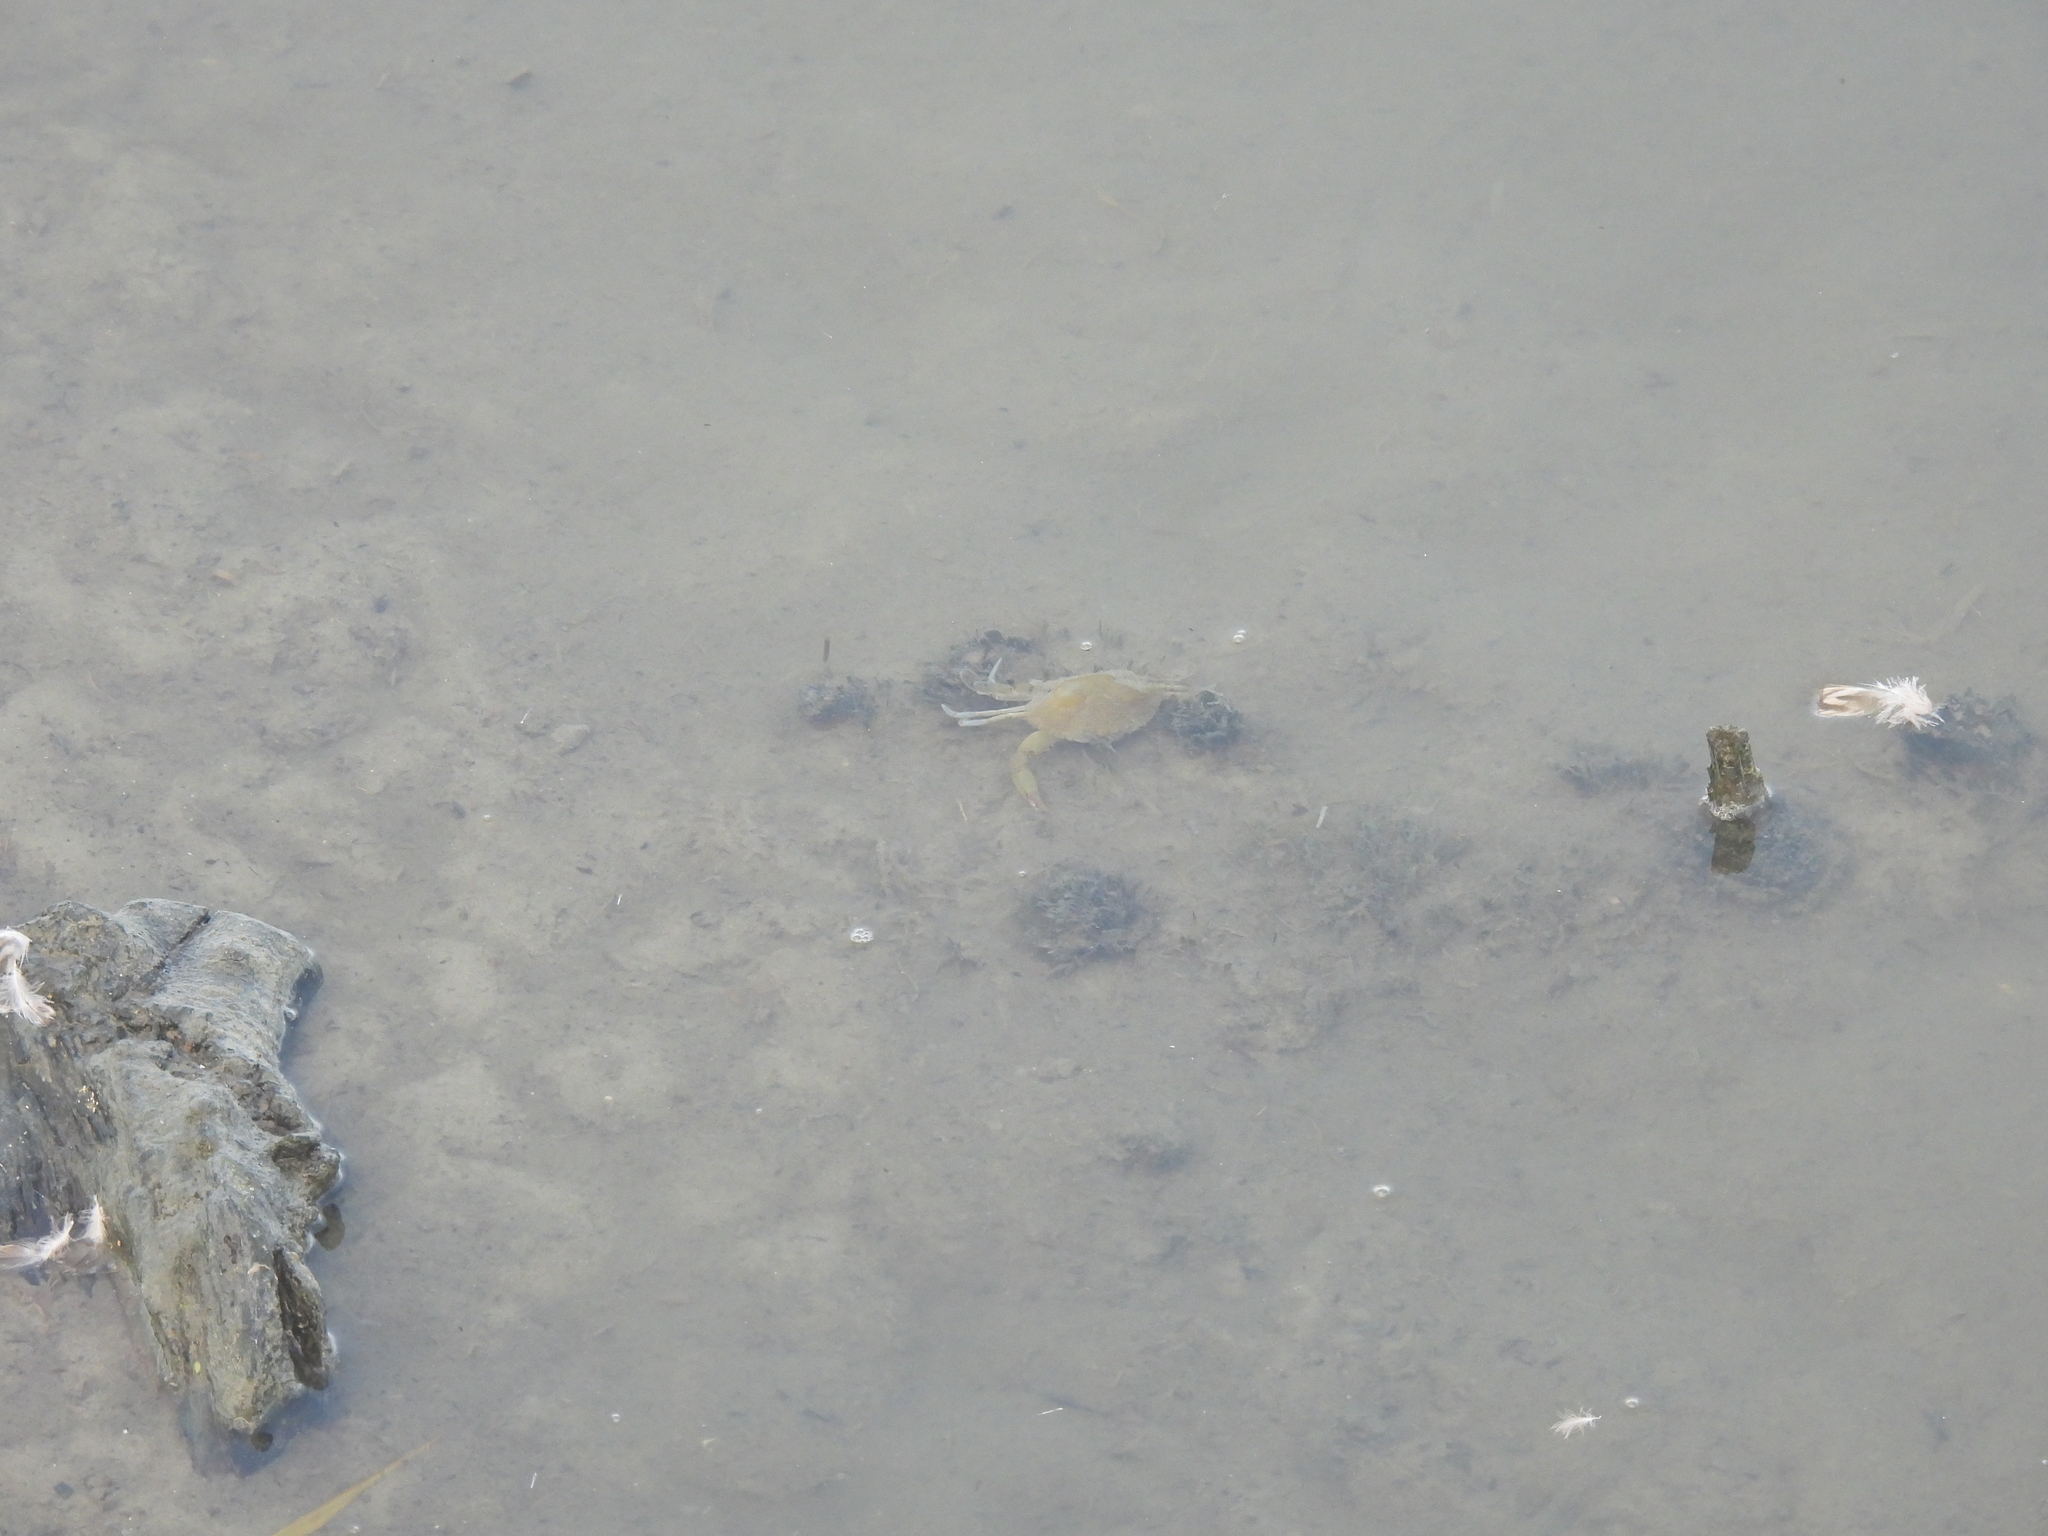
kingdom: Animalia
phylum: Arthropoda
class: Malacostraca
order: Decapoda
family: Portunidae
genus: Callinectes
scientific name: Callinectes sapidus
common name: Blue crab
